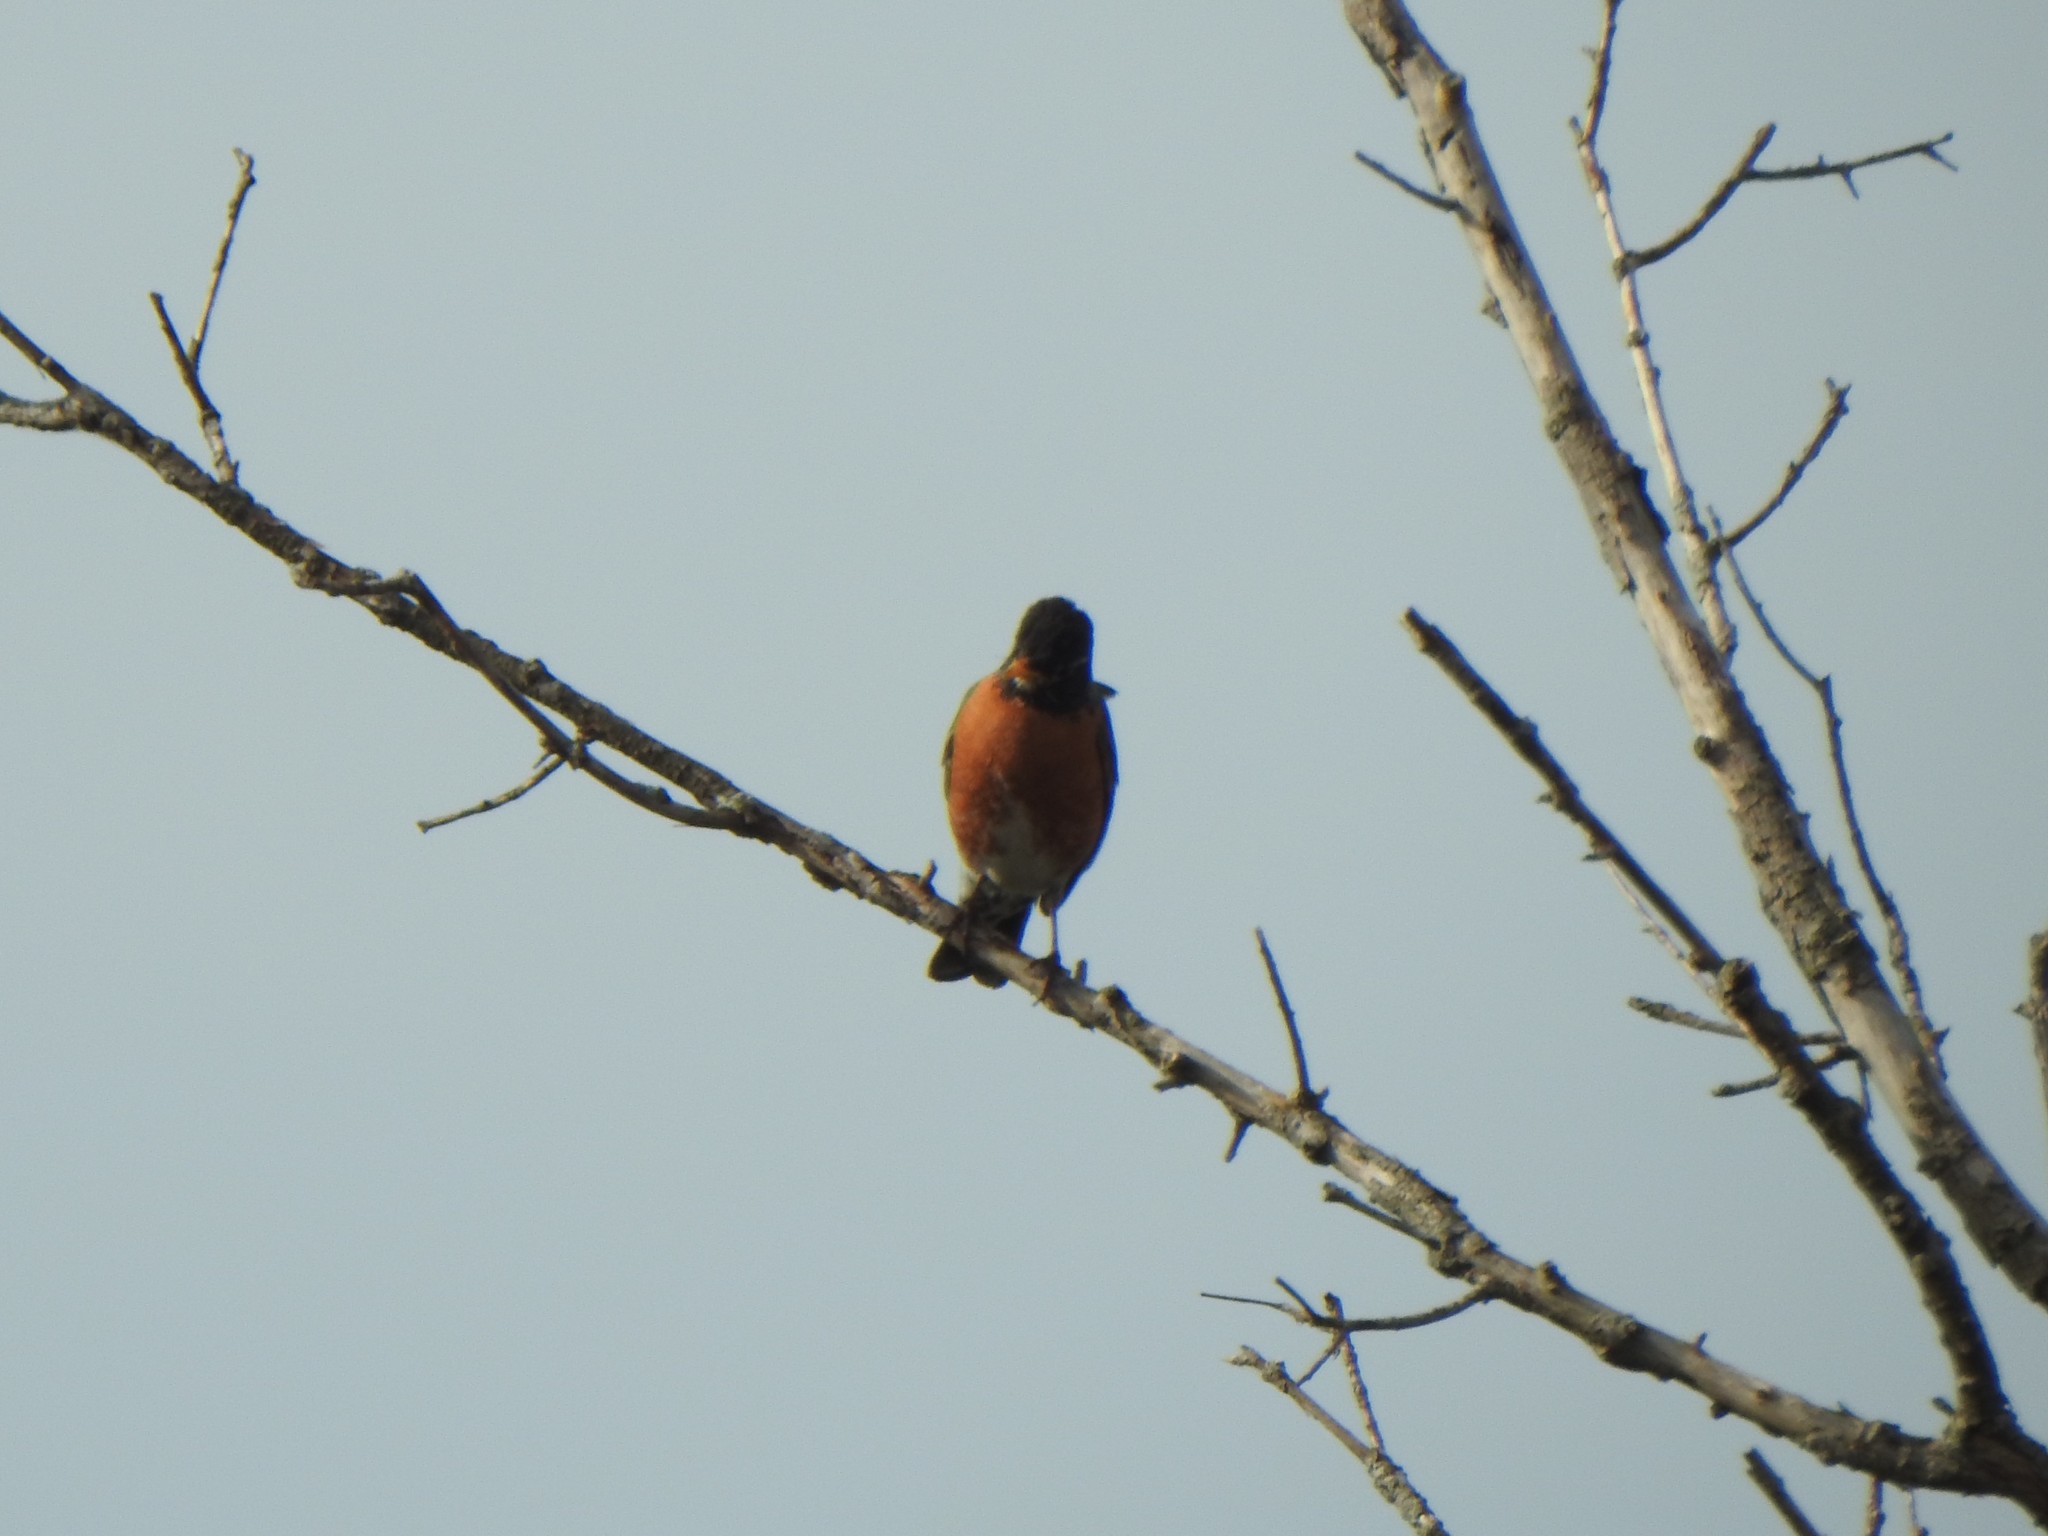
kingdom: Animalia
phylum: Chordata
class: Aves
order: Passeriformes
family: Turdidae
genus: Turdus
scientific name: Turdus migratorius
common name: American robin
